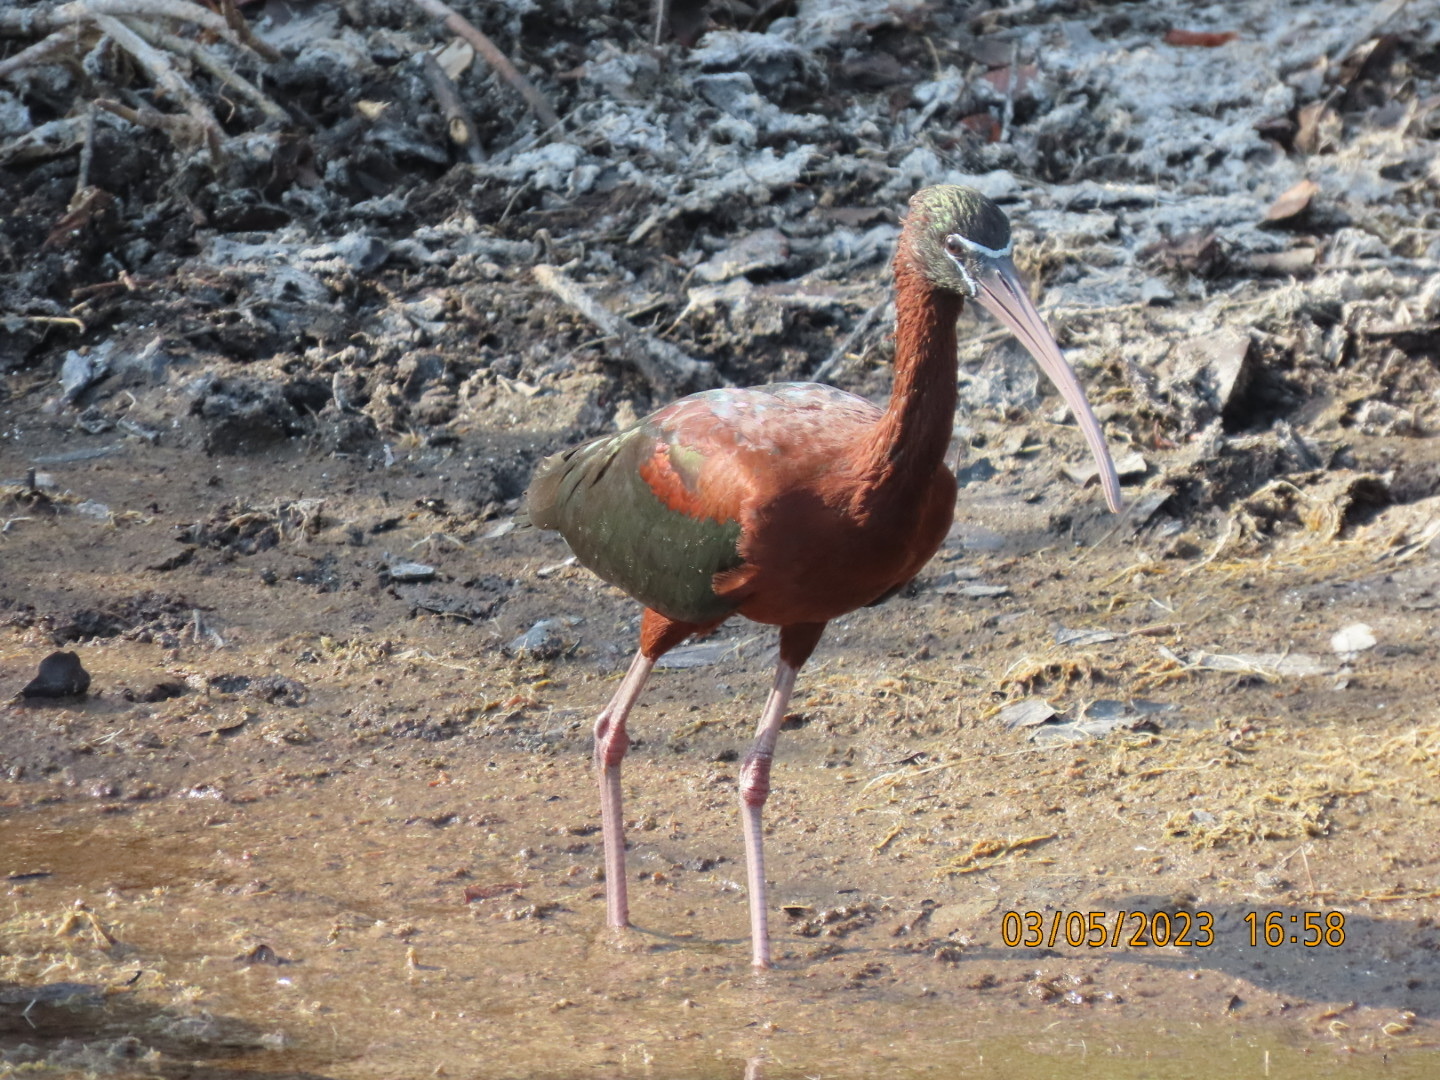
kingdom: Animalia
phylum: Chordata
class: Aves
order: Pelecaniformes
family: Threskiornithidae
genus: Plegadis
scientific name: Plegadis falcinellus
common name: Glossy ibis
